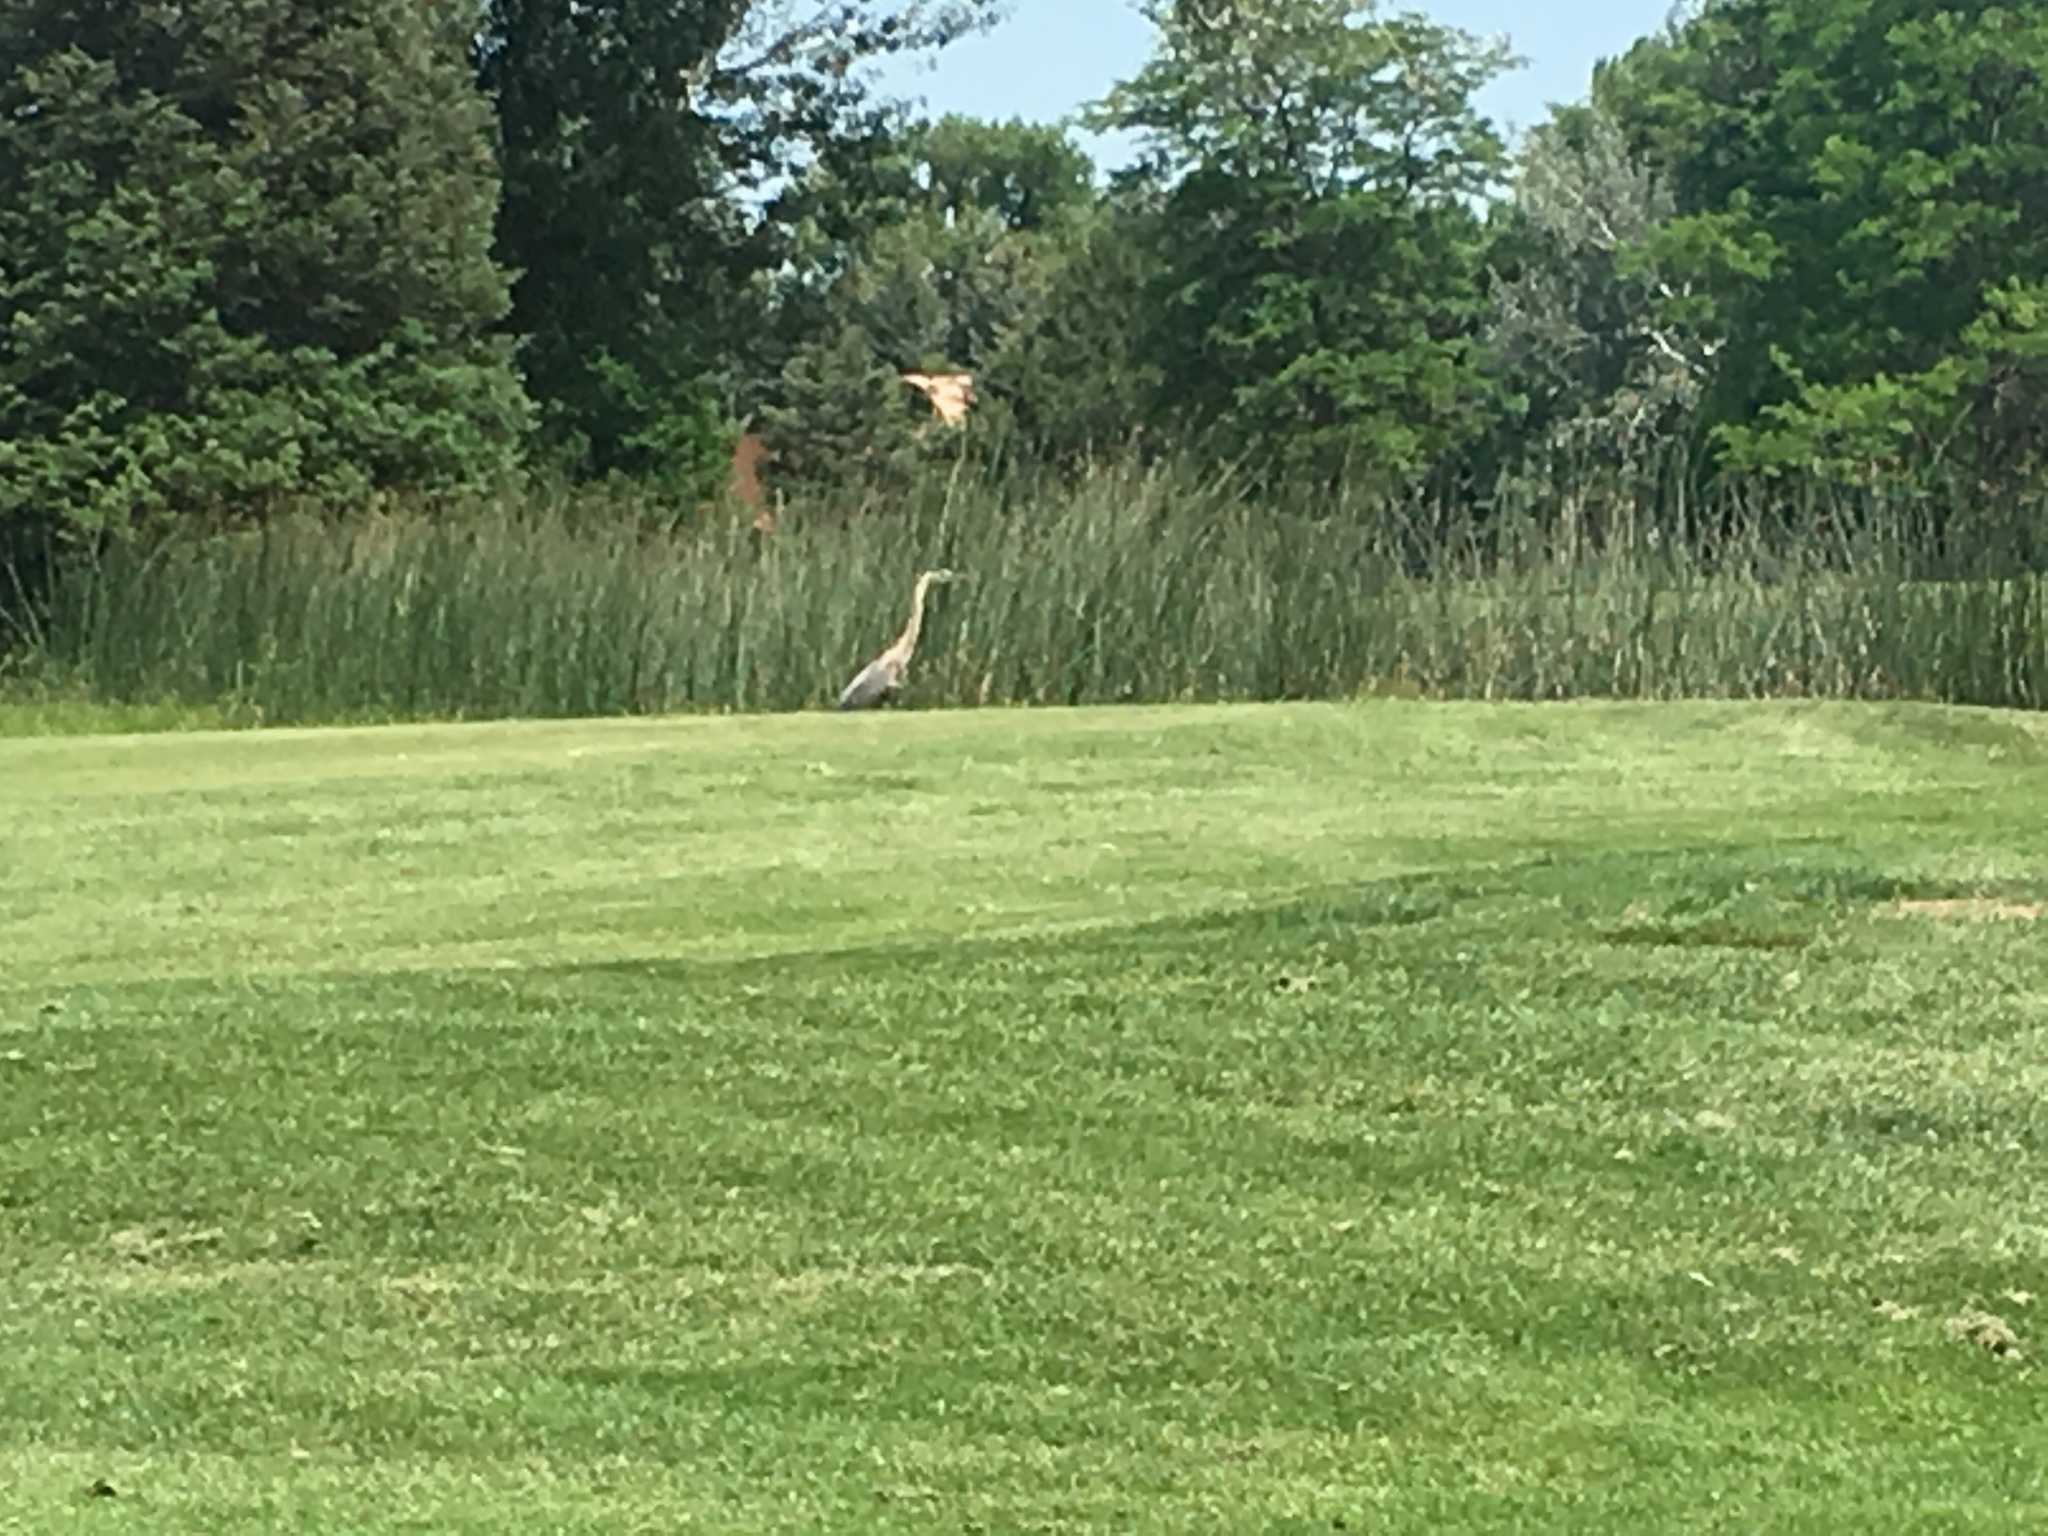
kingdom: Animalia
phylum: Chordata
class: Aves
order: Pelecaniformes
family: Ardeidae
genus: Ardea
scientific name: Ardea herodias
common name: Great blue heron
